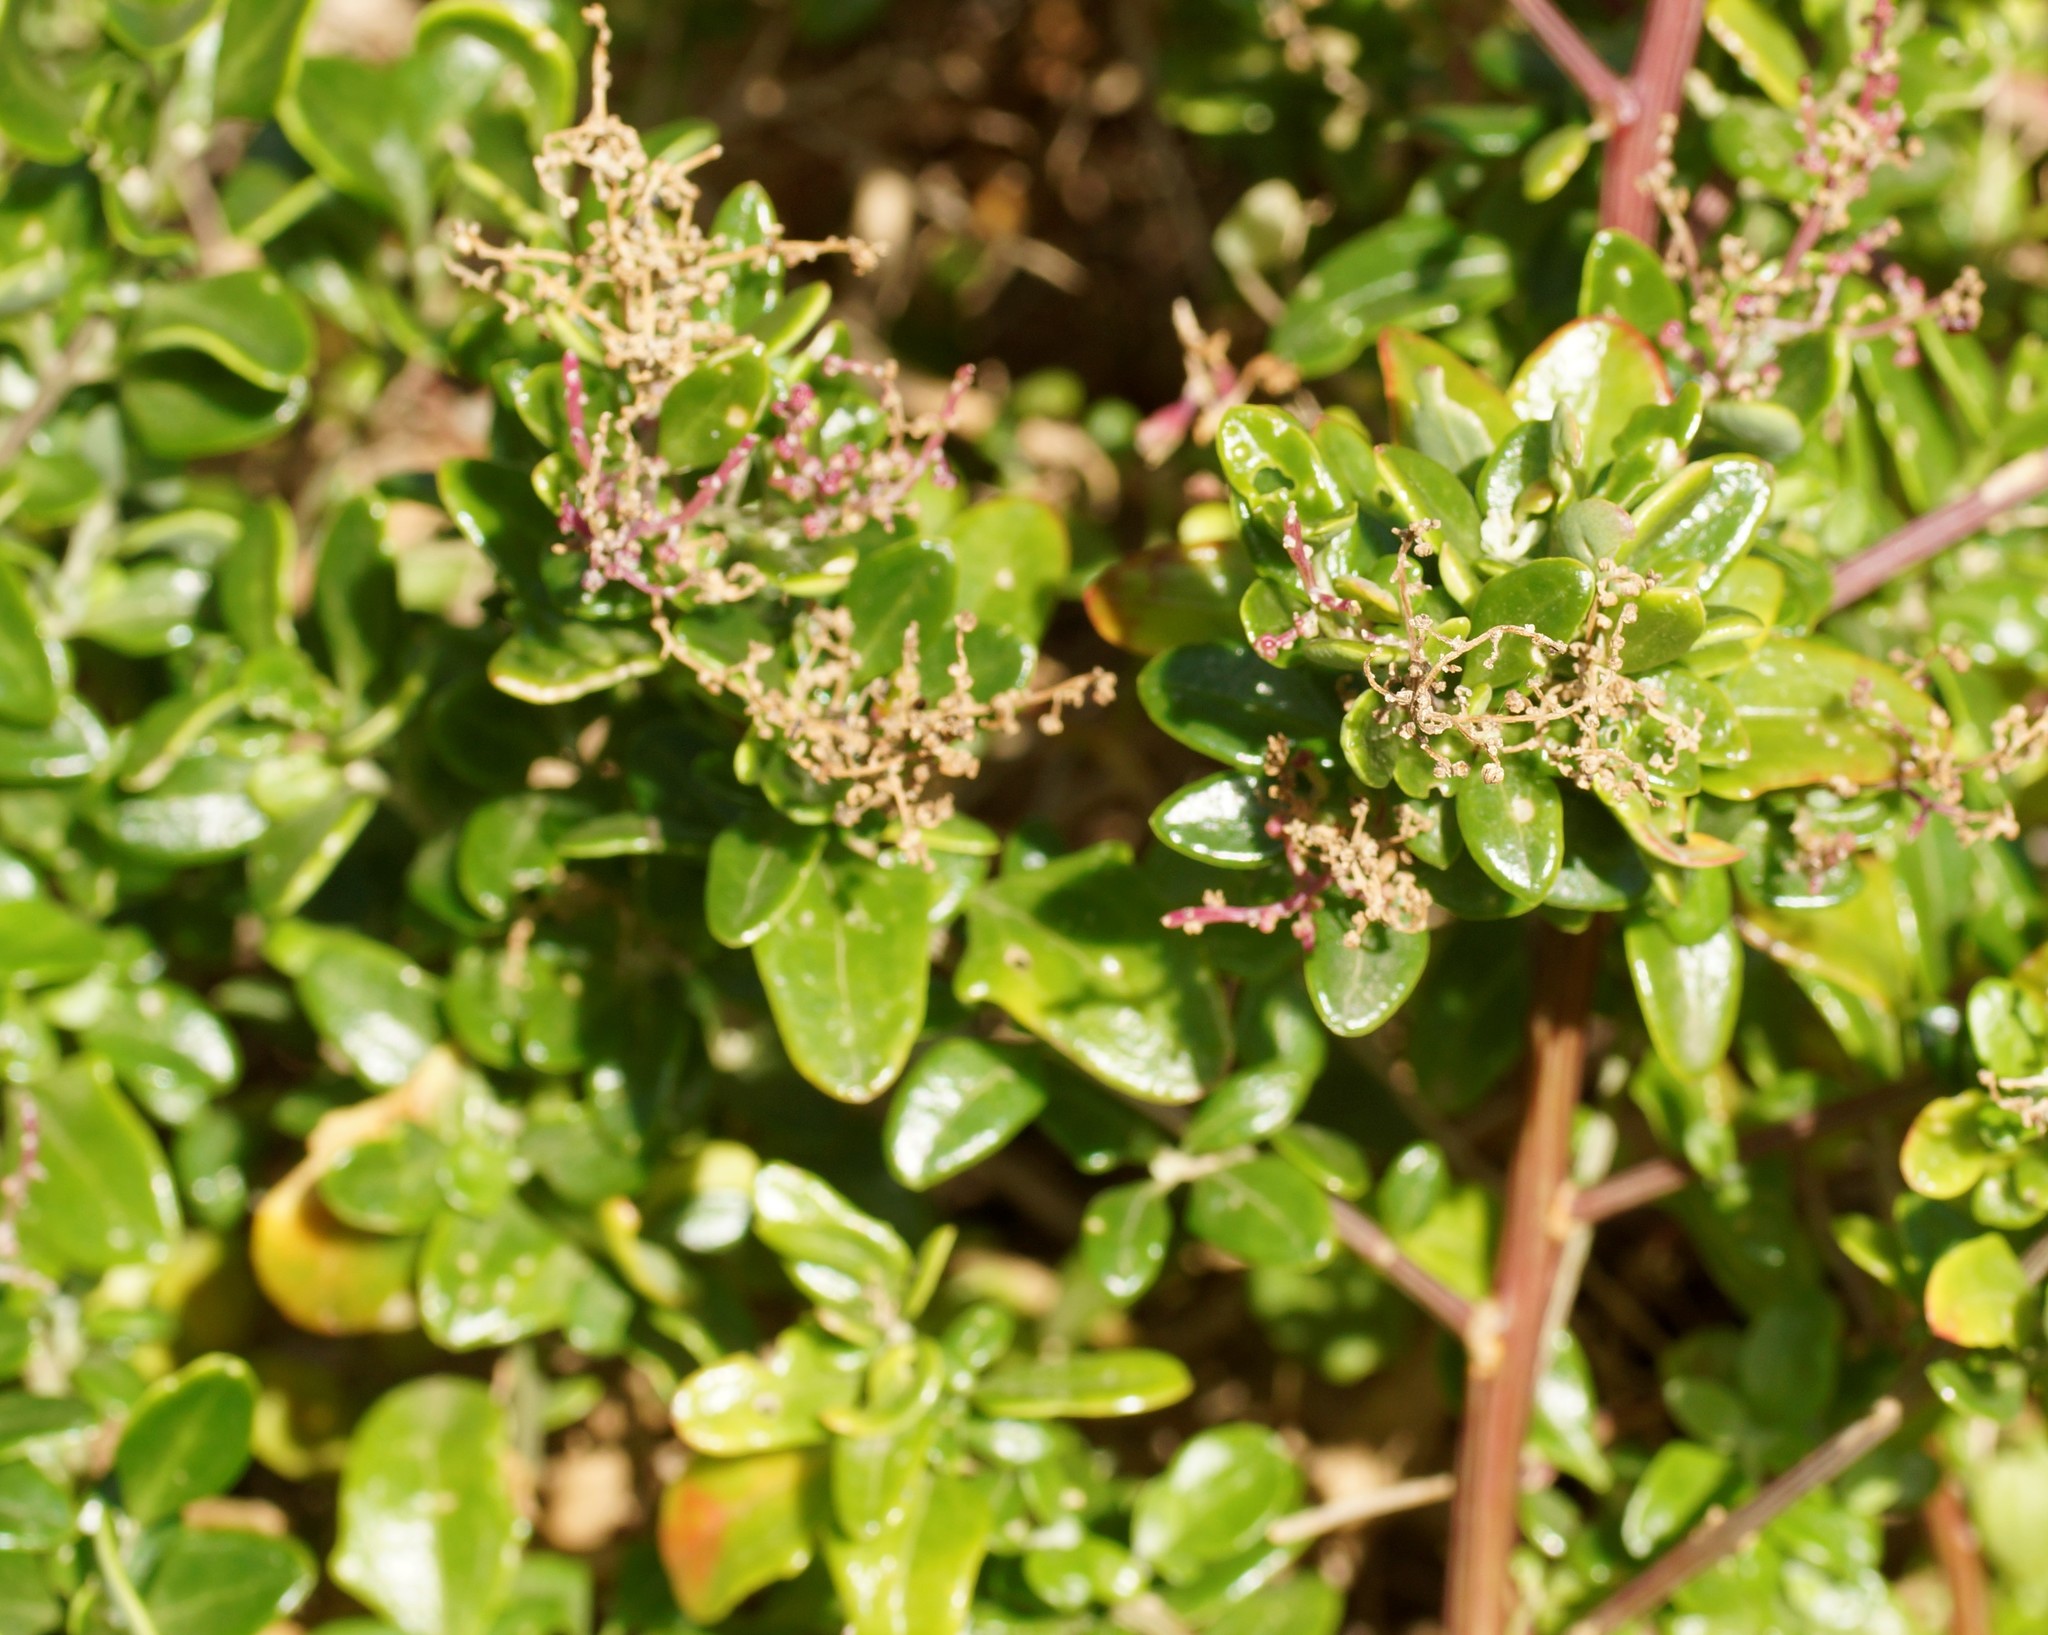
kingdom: Plantae
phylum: Tracheophyta
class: Magnoliopsida
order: Caryophyllales
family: Amaranthaceae
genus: Chenopodium
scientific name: Chenopodium candolleanum
